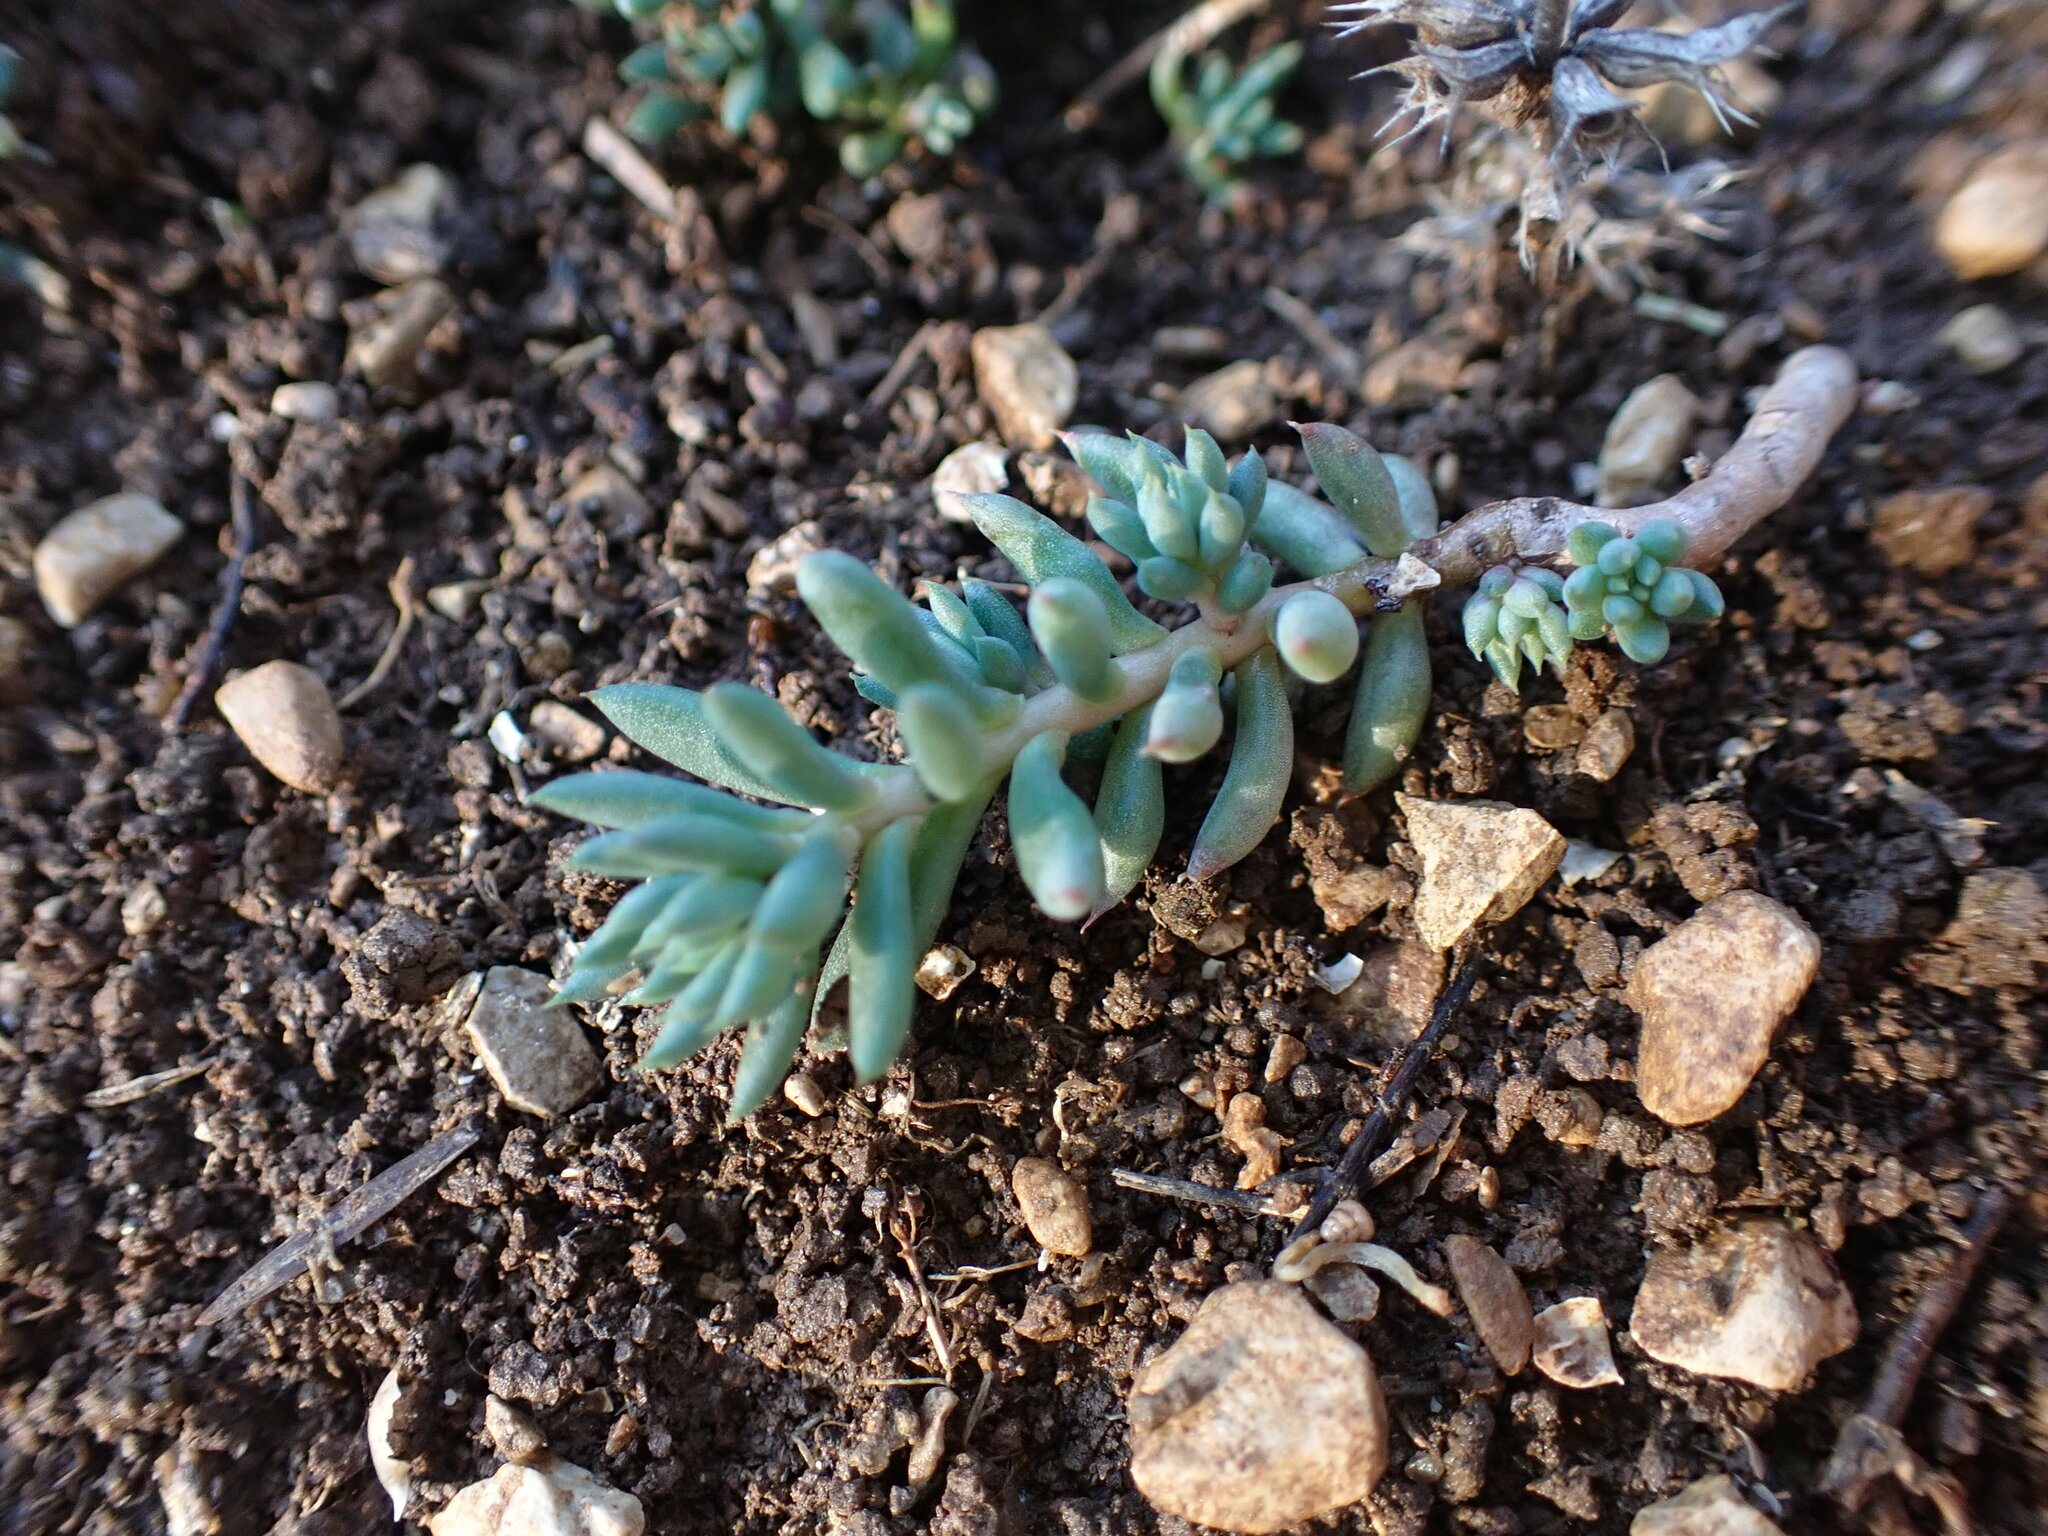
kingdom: Plantae
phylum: Tracheophyta
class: Magnoliopsida
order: Saxifragales
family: Crassulaceae
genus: Petrosedum
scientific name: Petrosedum sediforme
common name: Pale stonecrop
